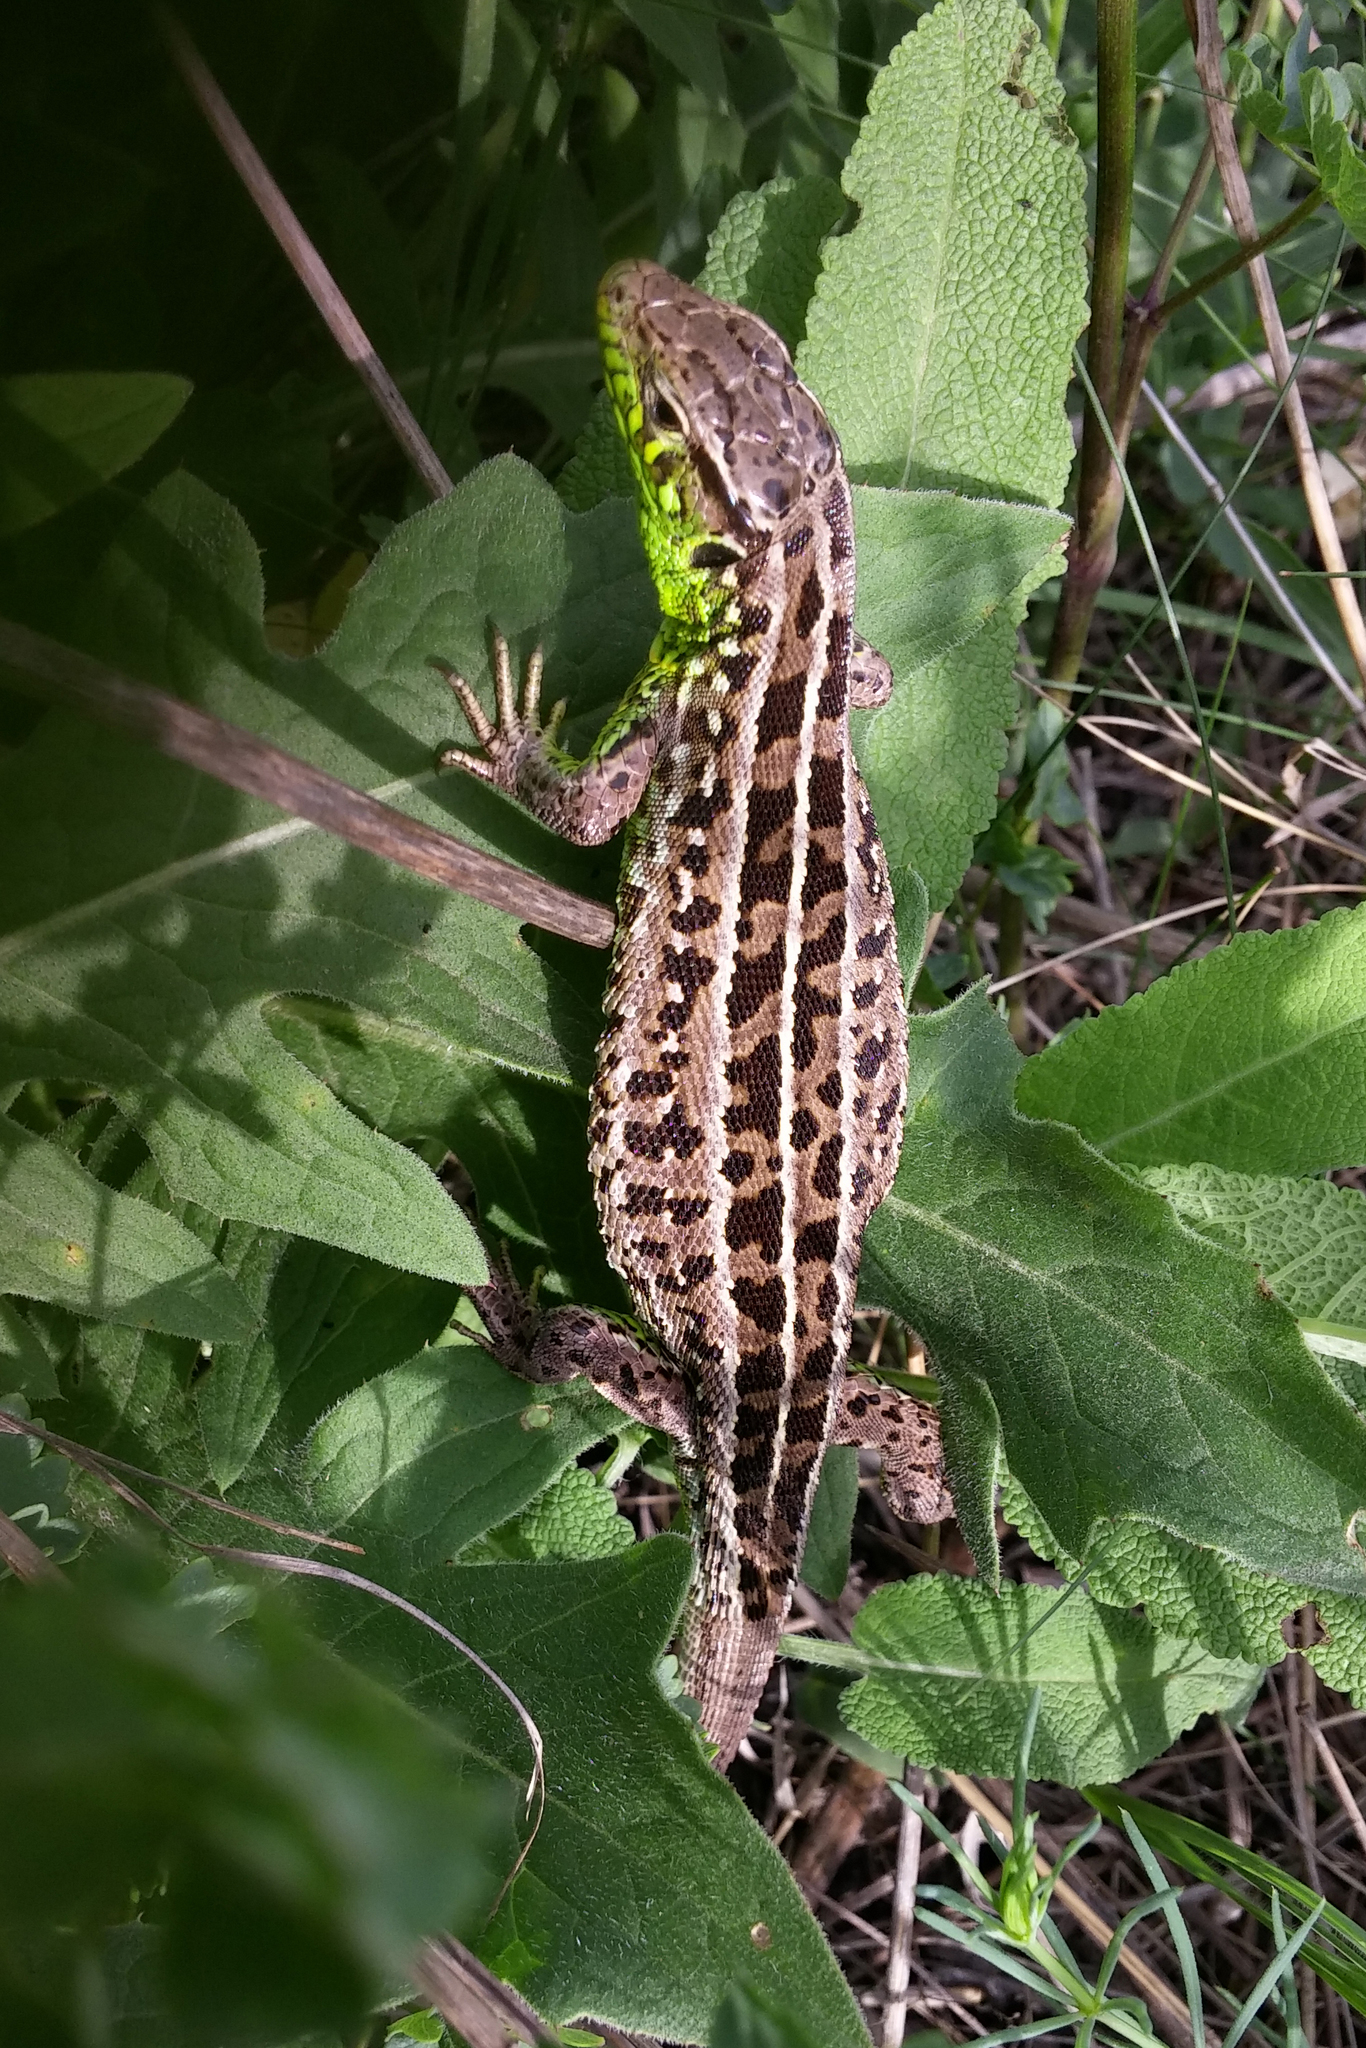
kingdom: Animalia
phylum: Chordata
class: Squamata
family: Lacertidae
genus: Lacerta
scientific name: Lacerta agilis
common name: Sand lizard
